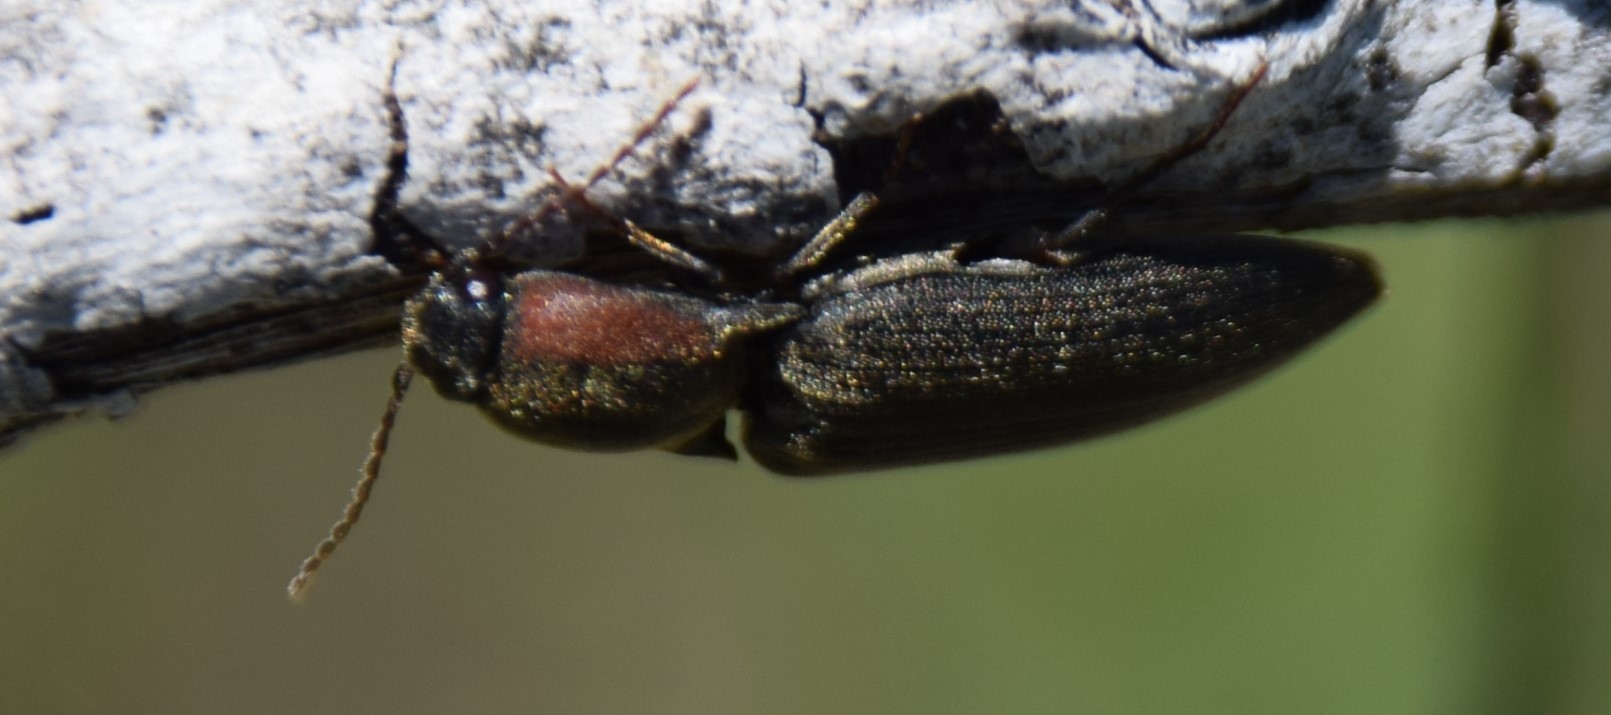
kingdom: Animalia
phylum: Arthropoda
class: Insecta
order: Coleoptera
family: Elateridae
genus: Agriotes
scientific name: Agriotes fucosus
